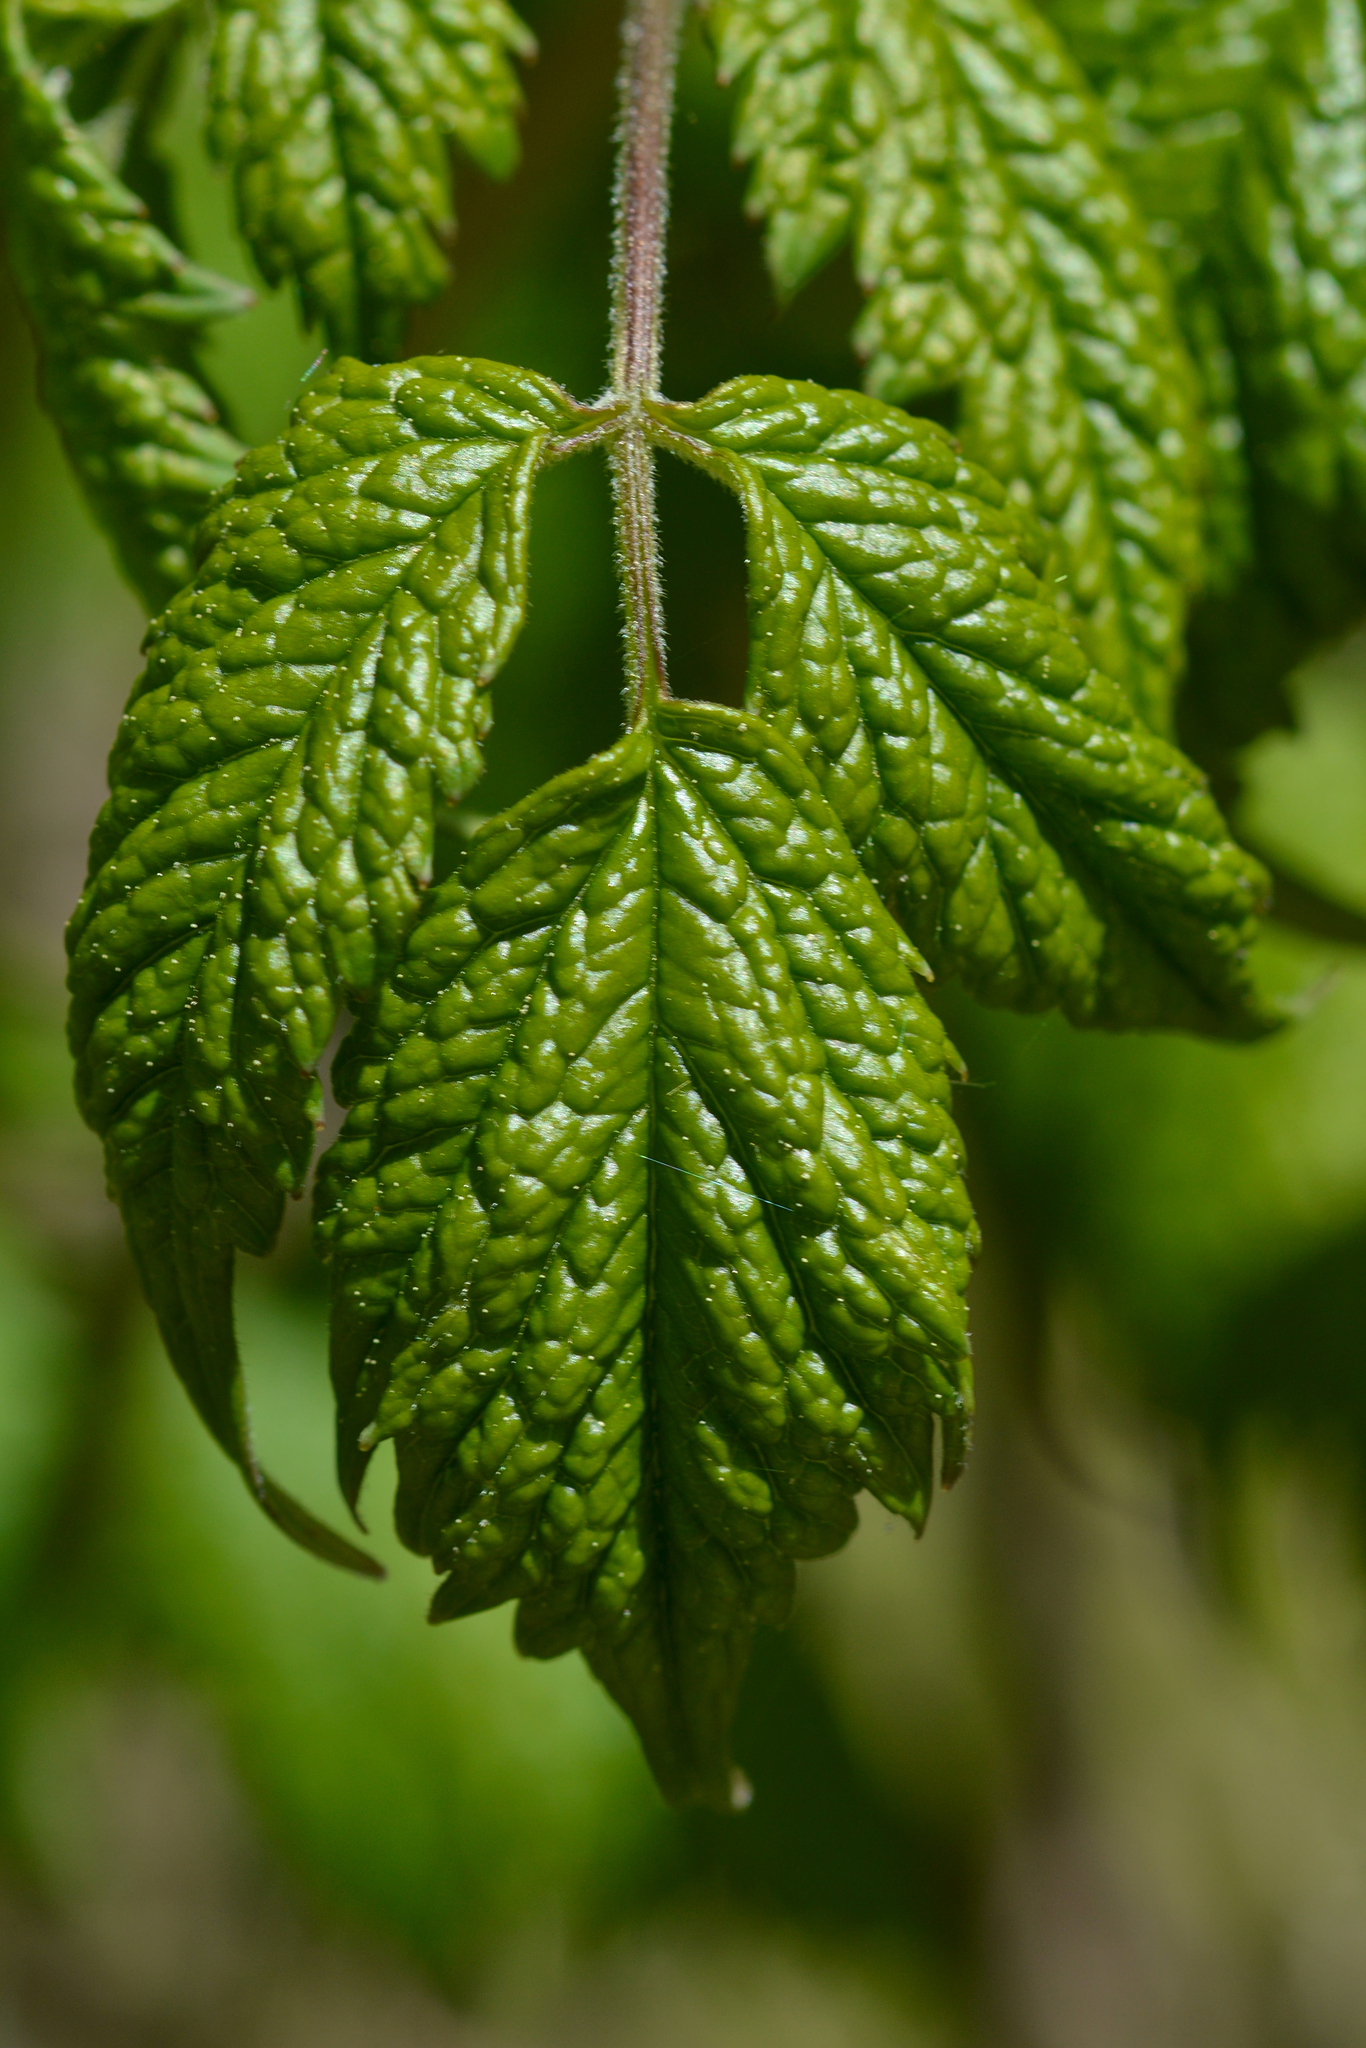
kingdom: Plantae
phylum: Tracheophyta
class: Magnoliopsida
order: Ranunculales
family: Ranunculaceae
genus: Actaea
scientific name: Actaea pachypoda
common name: Doll's-eyes
